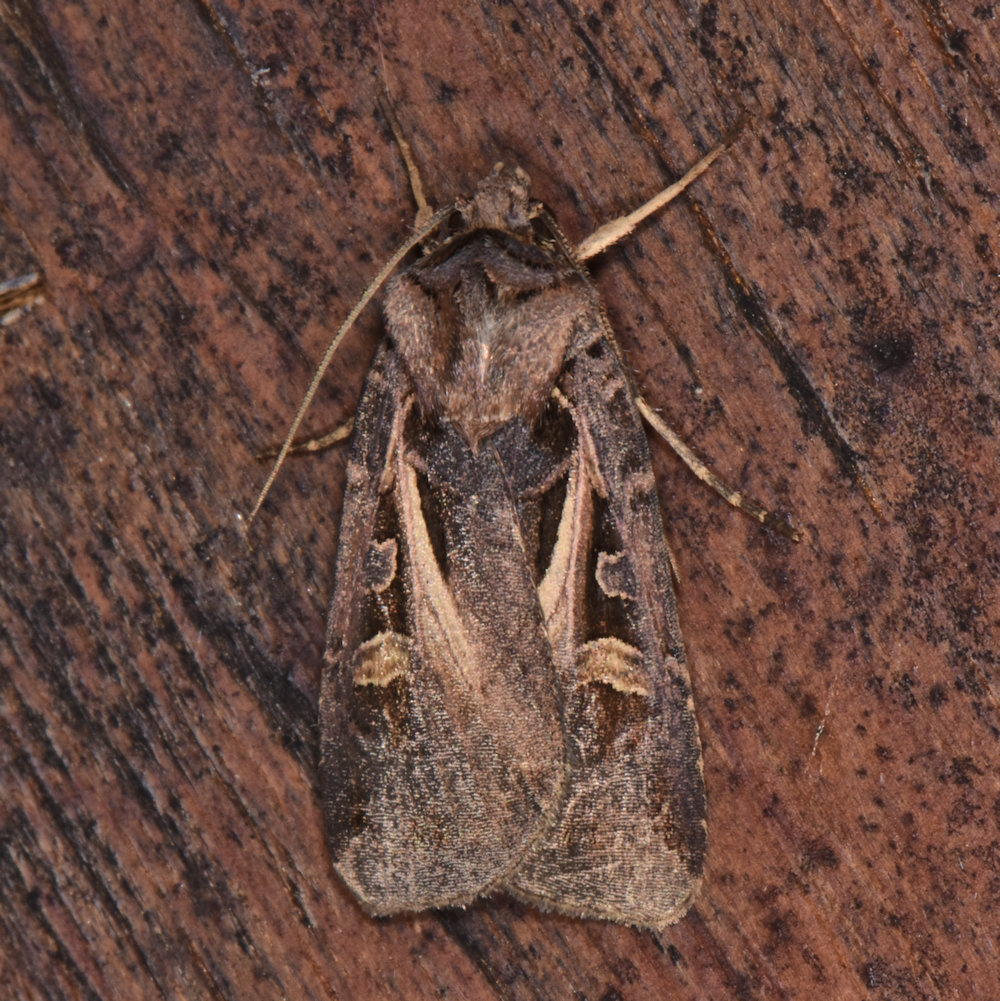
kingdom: Animalia
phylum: Arthropoda
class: Insecta
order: Lepidoptera
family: Noctuidae
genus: Feltia
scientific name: Feltia herilis
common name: Master's dart
